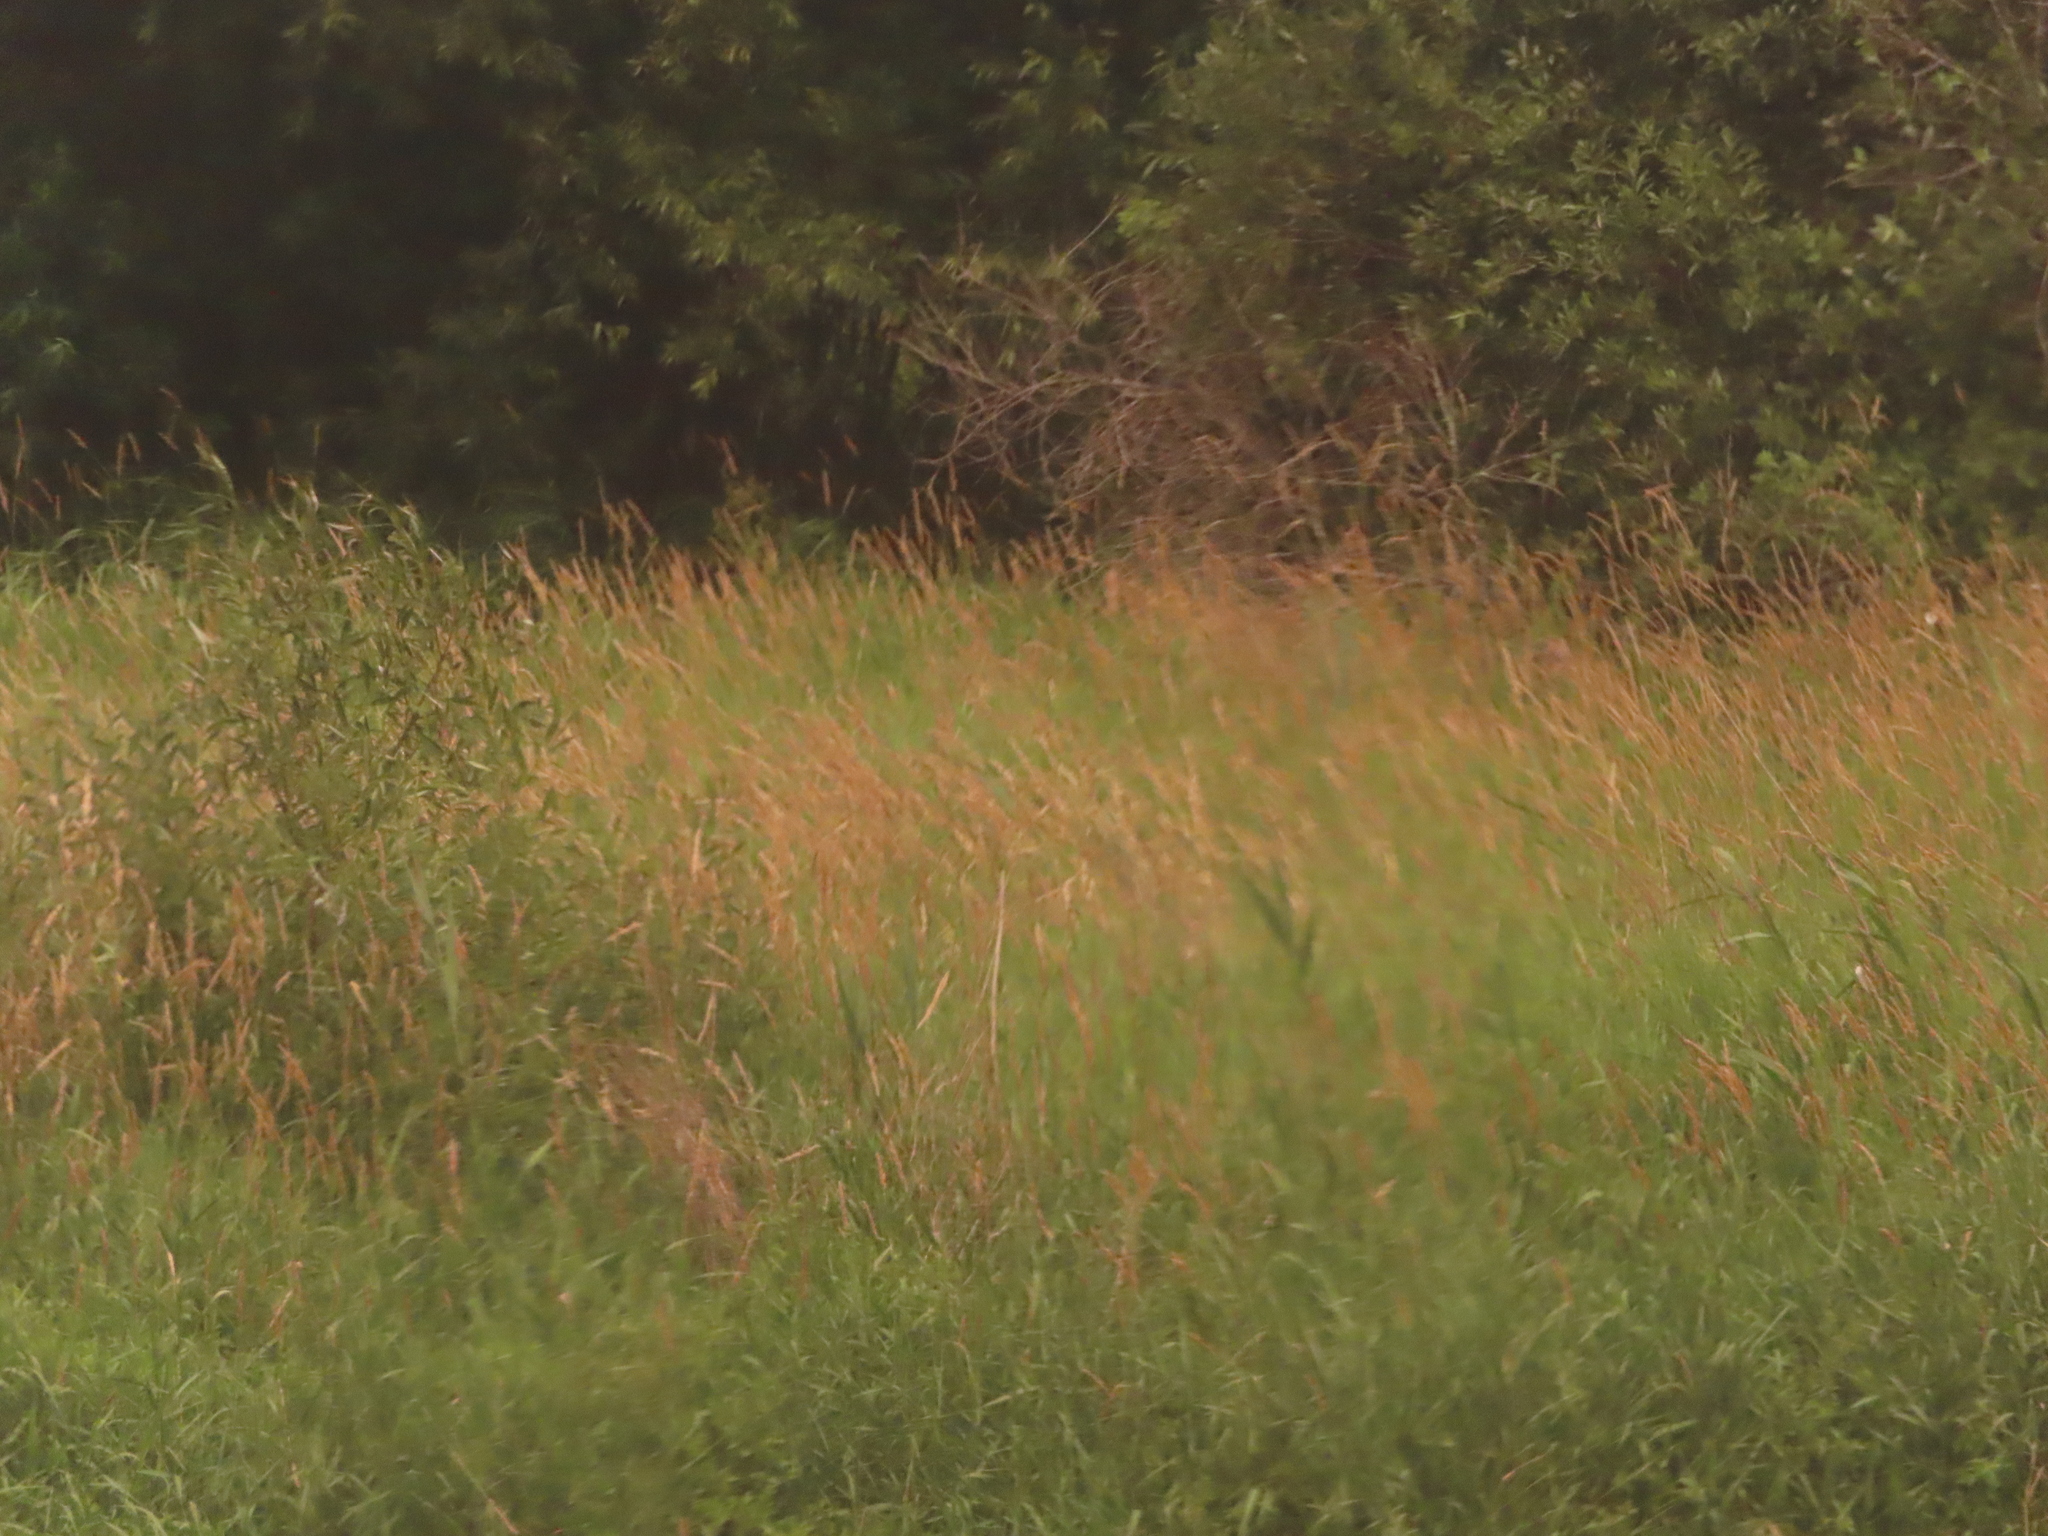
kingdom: Plantae
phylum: Tracheophyta
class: Liliopsida
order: Poales
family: Poaceae
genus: Phalaris
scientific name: Phalaris arundinacea
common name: Reed canary-grass
